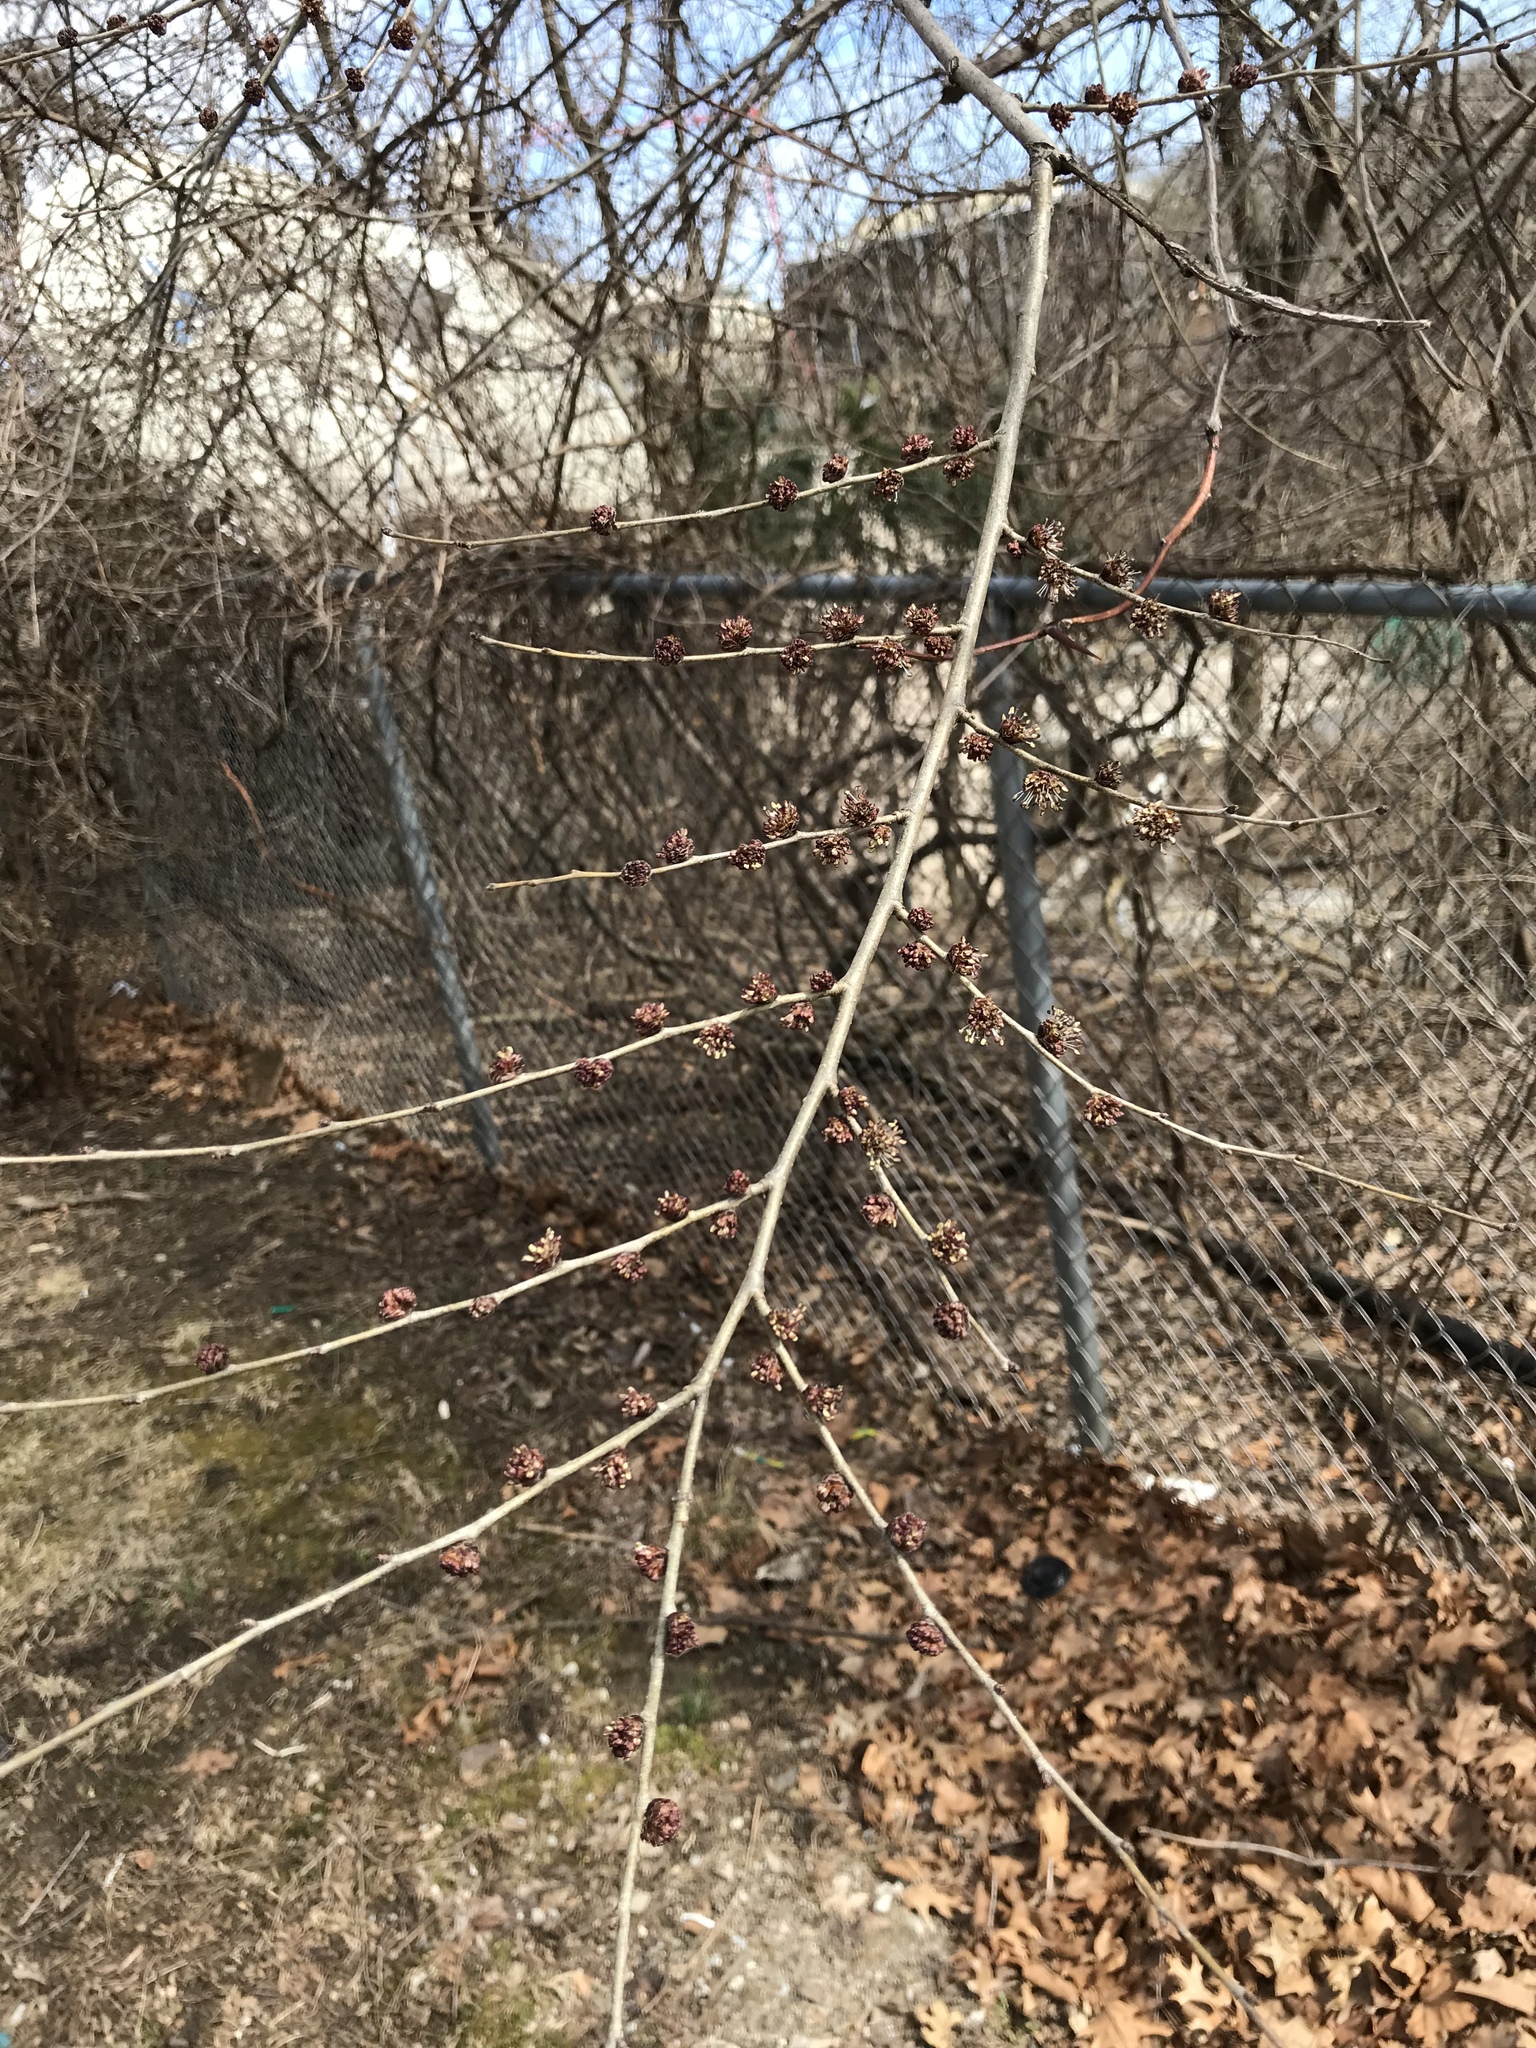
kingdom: Plantae
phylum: Tracheophyta
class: Magnoliopsida
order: Rosales
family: Ulmaceae
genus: Ulmus
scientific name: Ulmus pumila
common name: Siberian elm
